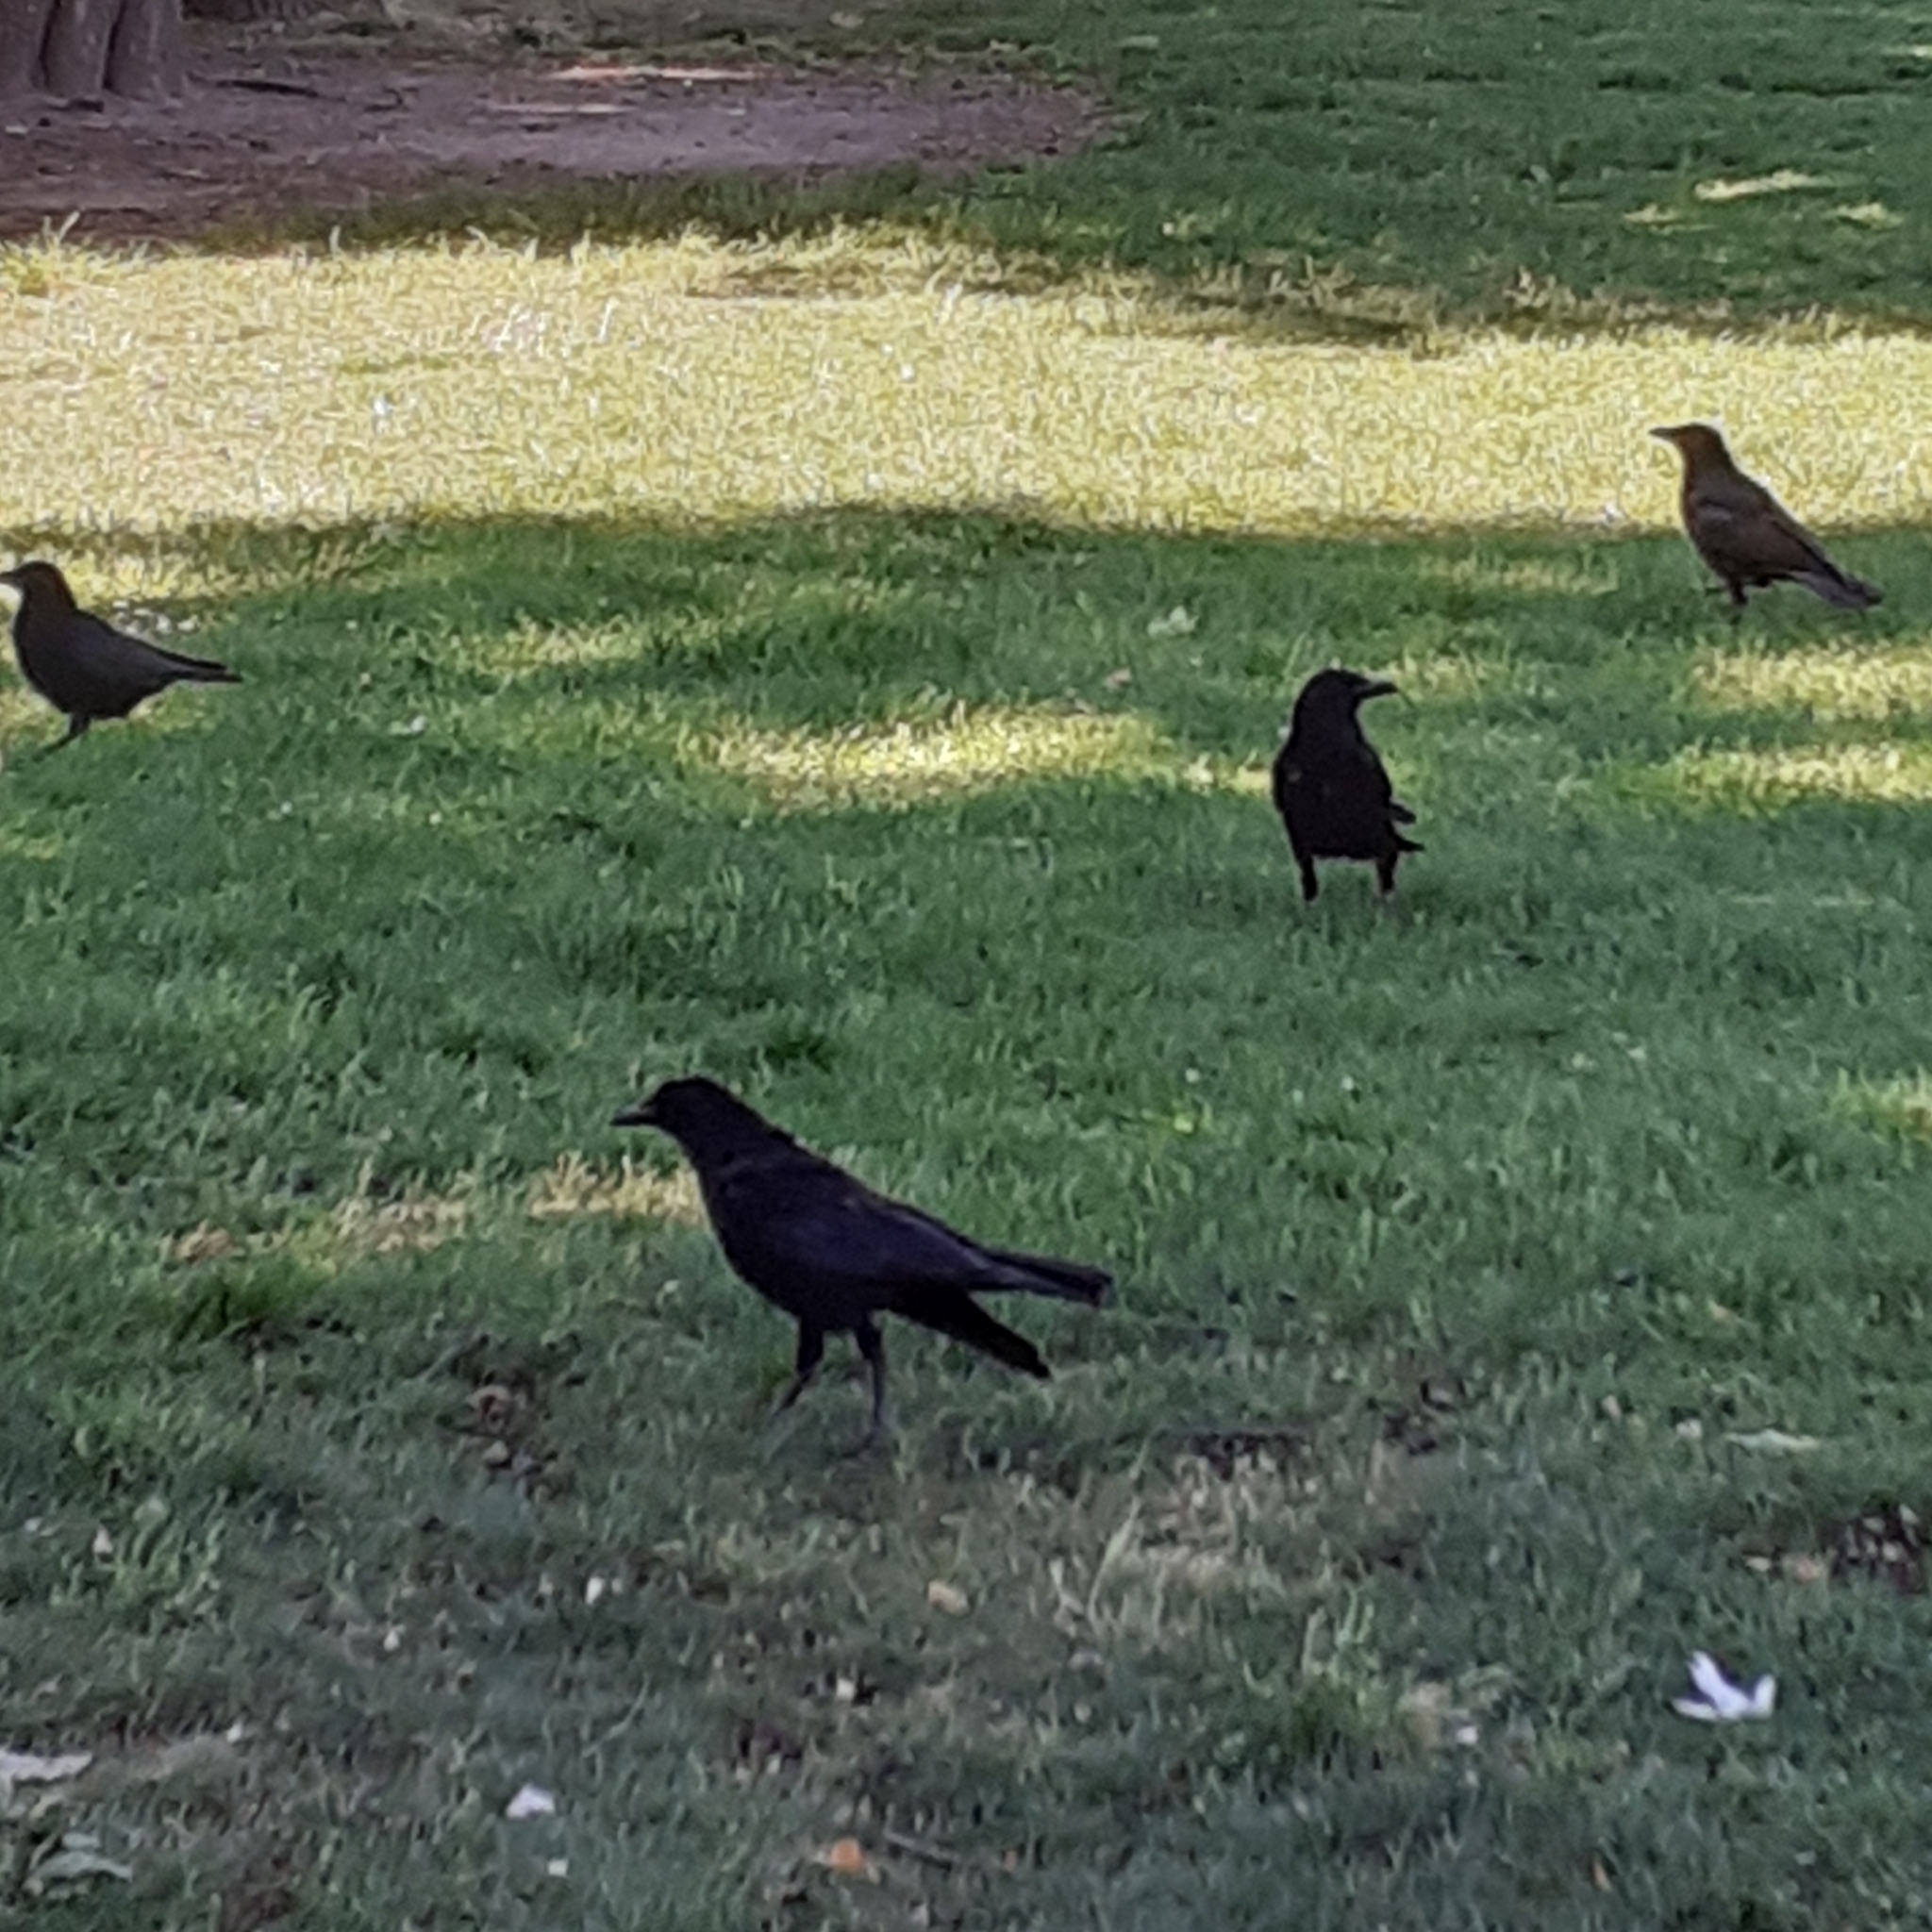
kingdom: Animalia
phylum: Chordata
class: Aves
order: Passeriformes
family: Corvidae
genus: Corvus
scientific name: Corvus corone
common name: Carrion crow
